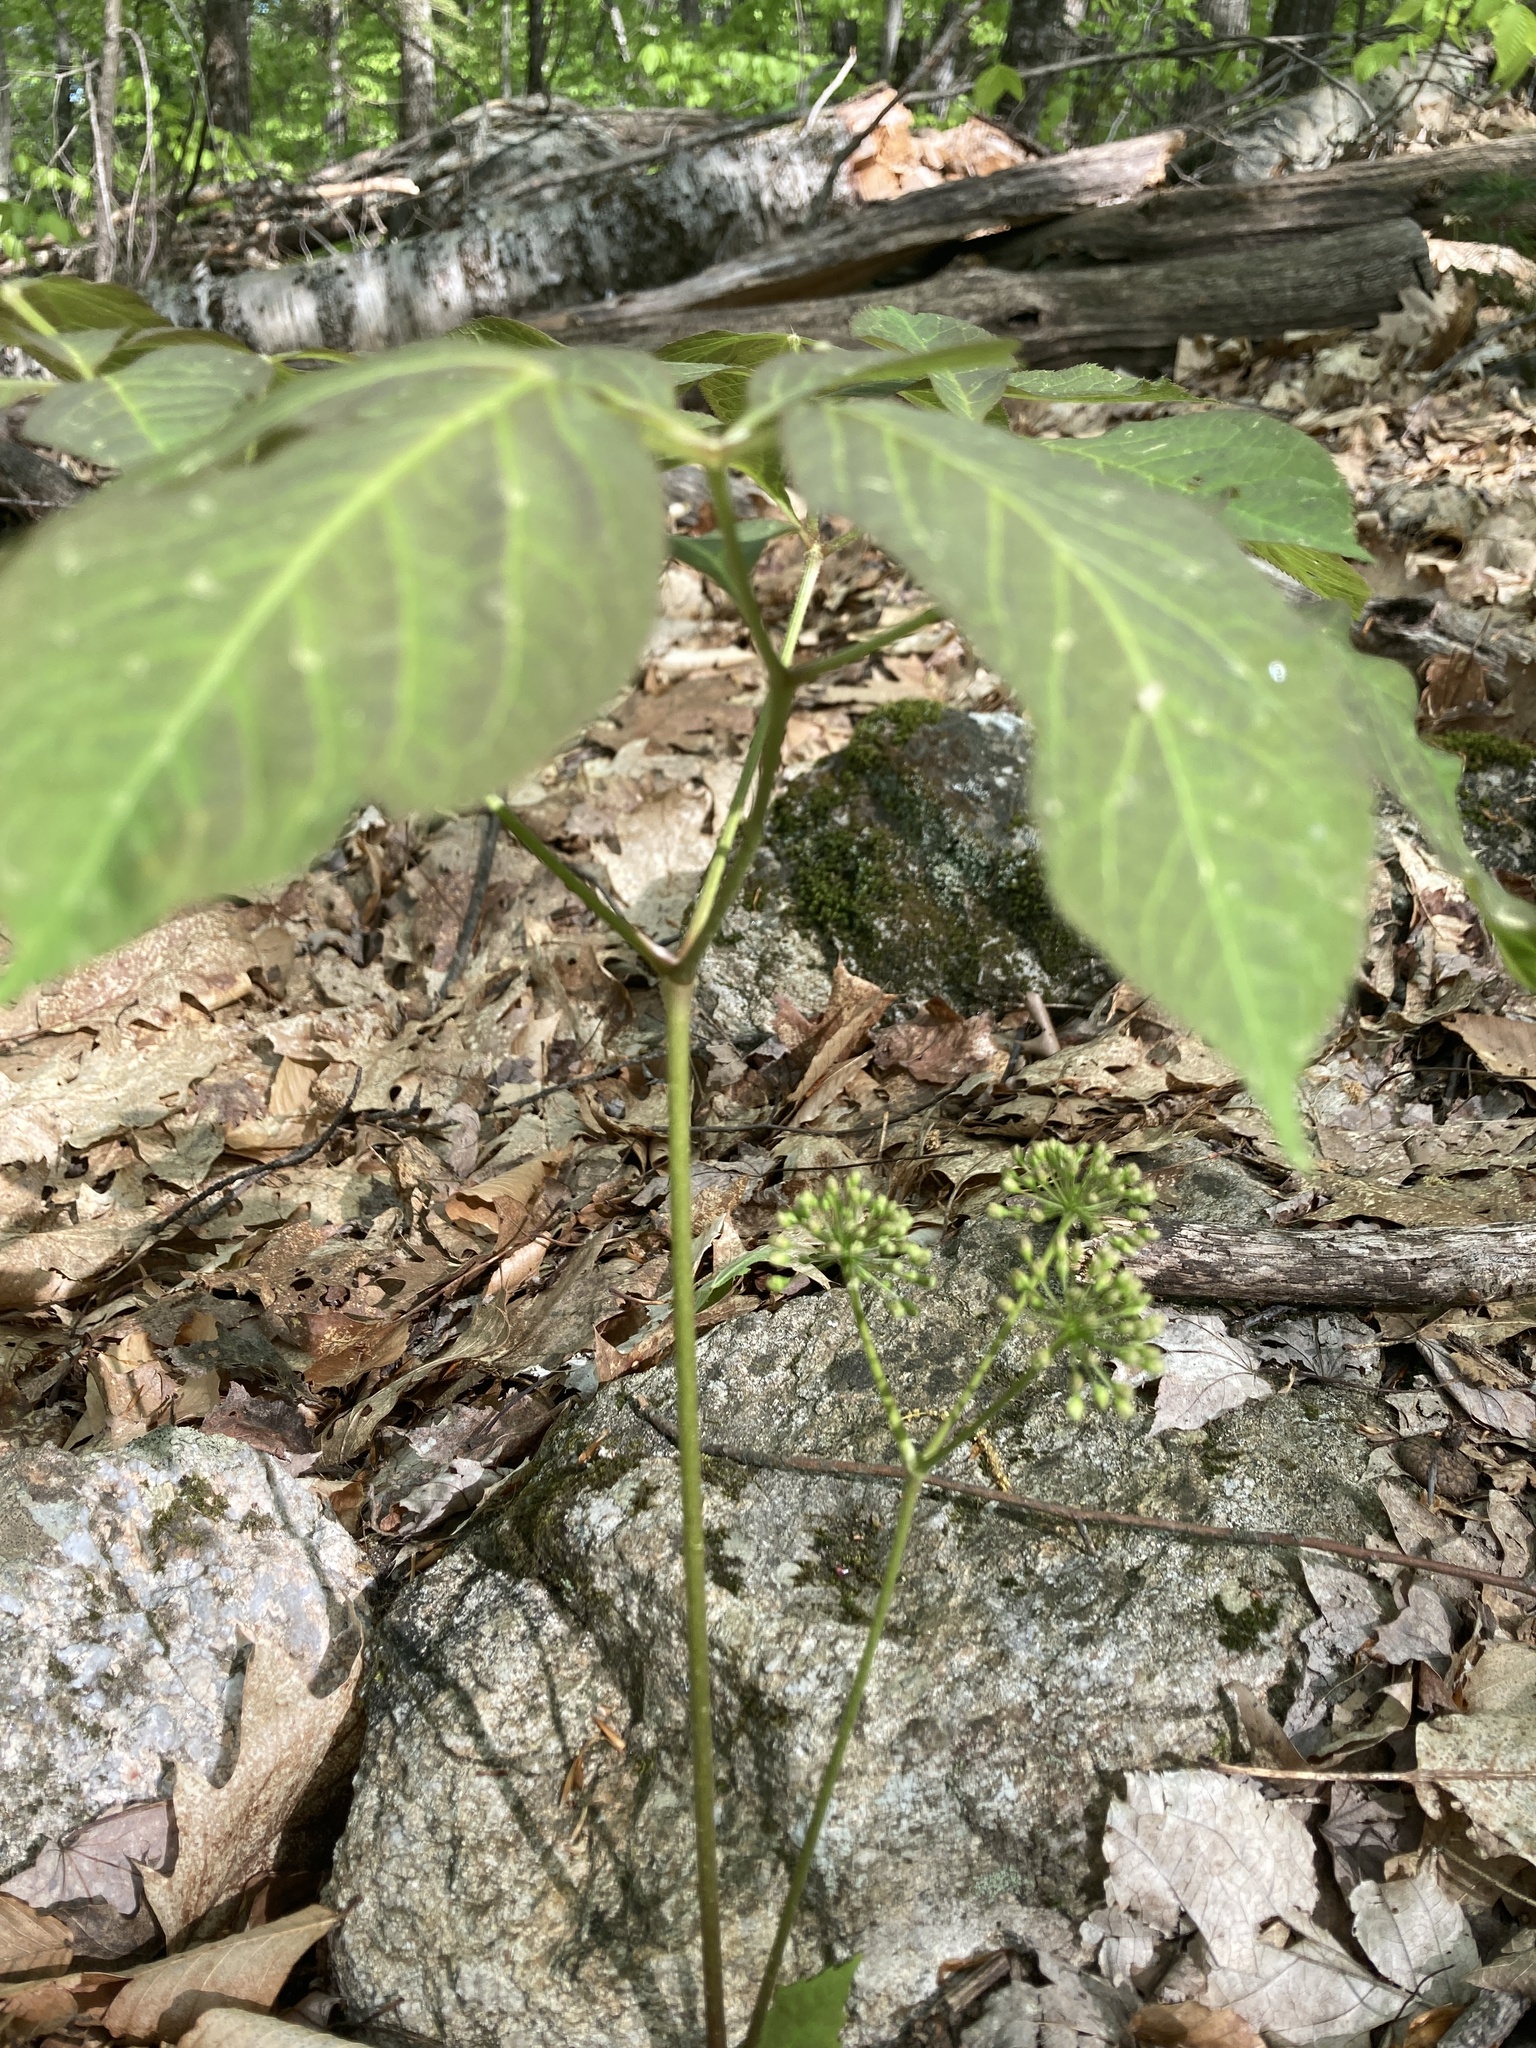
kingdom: Plantae
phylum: Tracheophyta
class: Magnoliopsida
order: Apiales
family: Araliaceae
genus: Aralia
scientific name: Aralia nudicaulis
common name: Wild sarsaparilla
